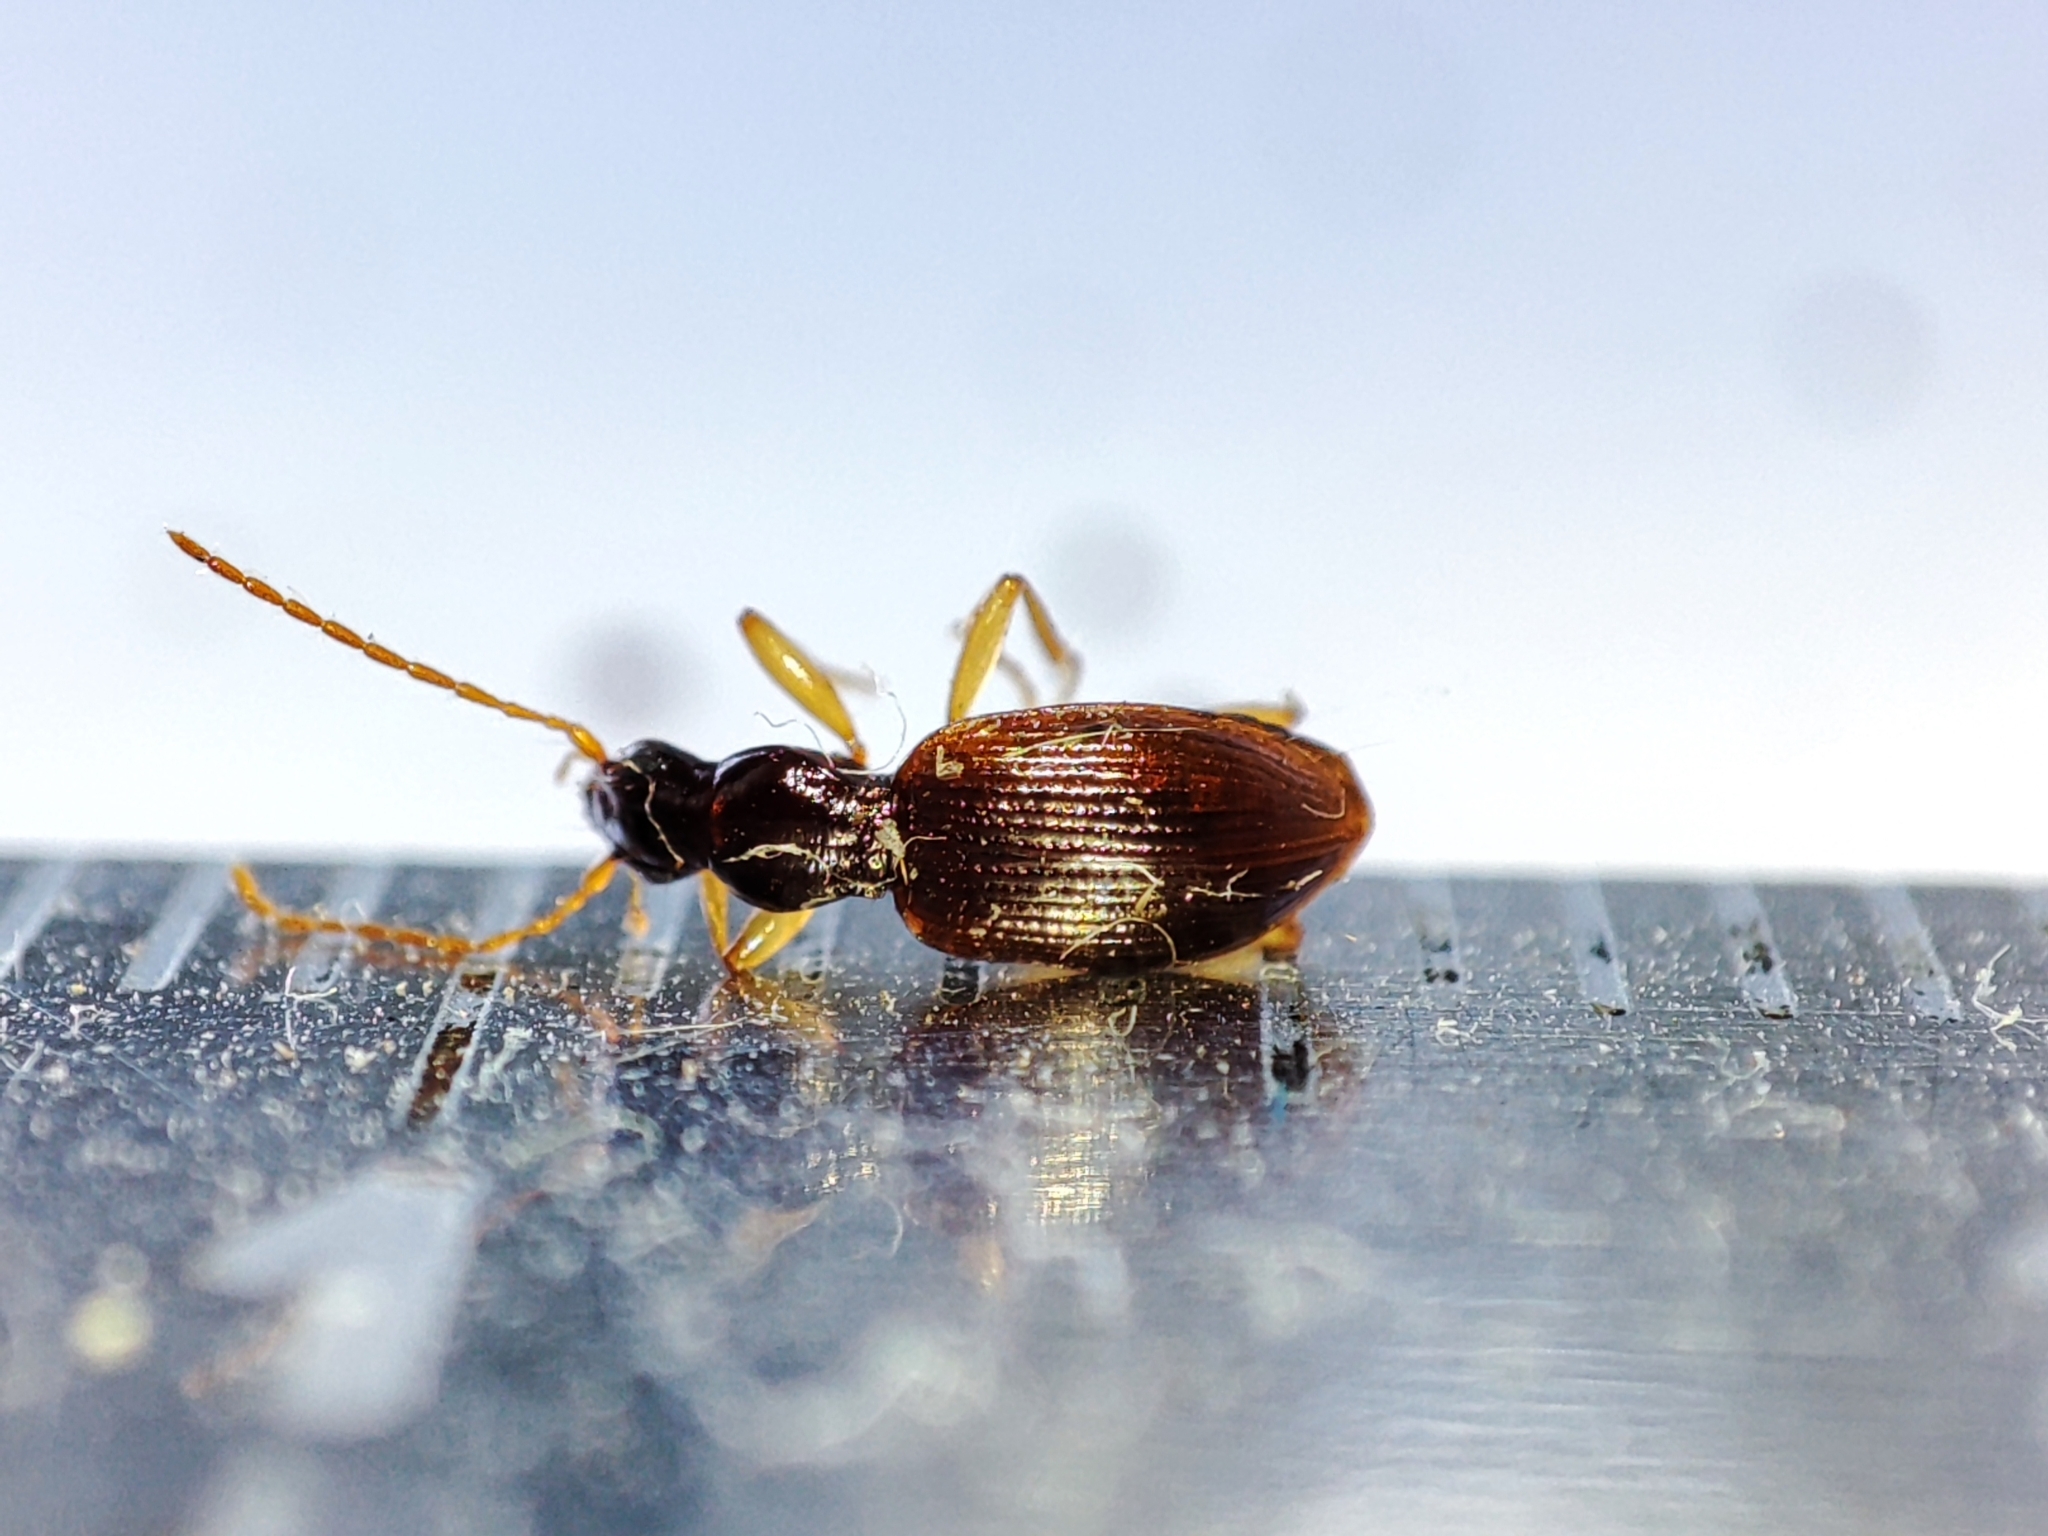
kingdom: Animalia
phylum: Arthropoda
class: Insecta
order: Coleoptera
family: Carabidae
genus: Oxypselaphus
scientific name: Oxypselaphus obscurus
